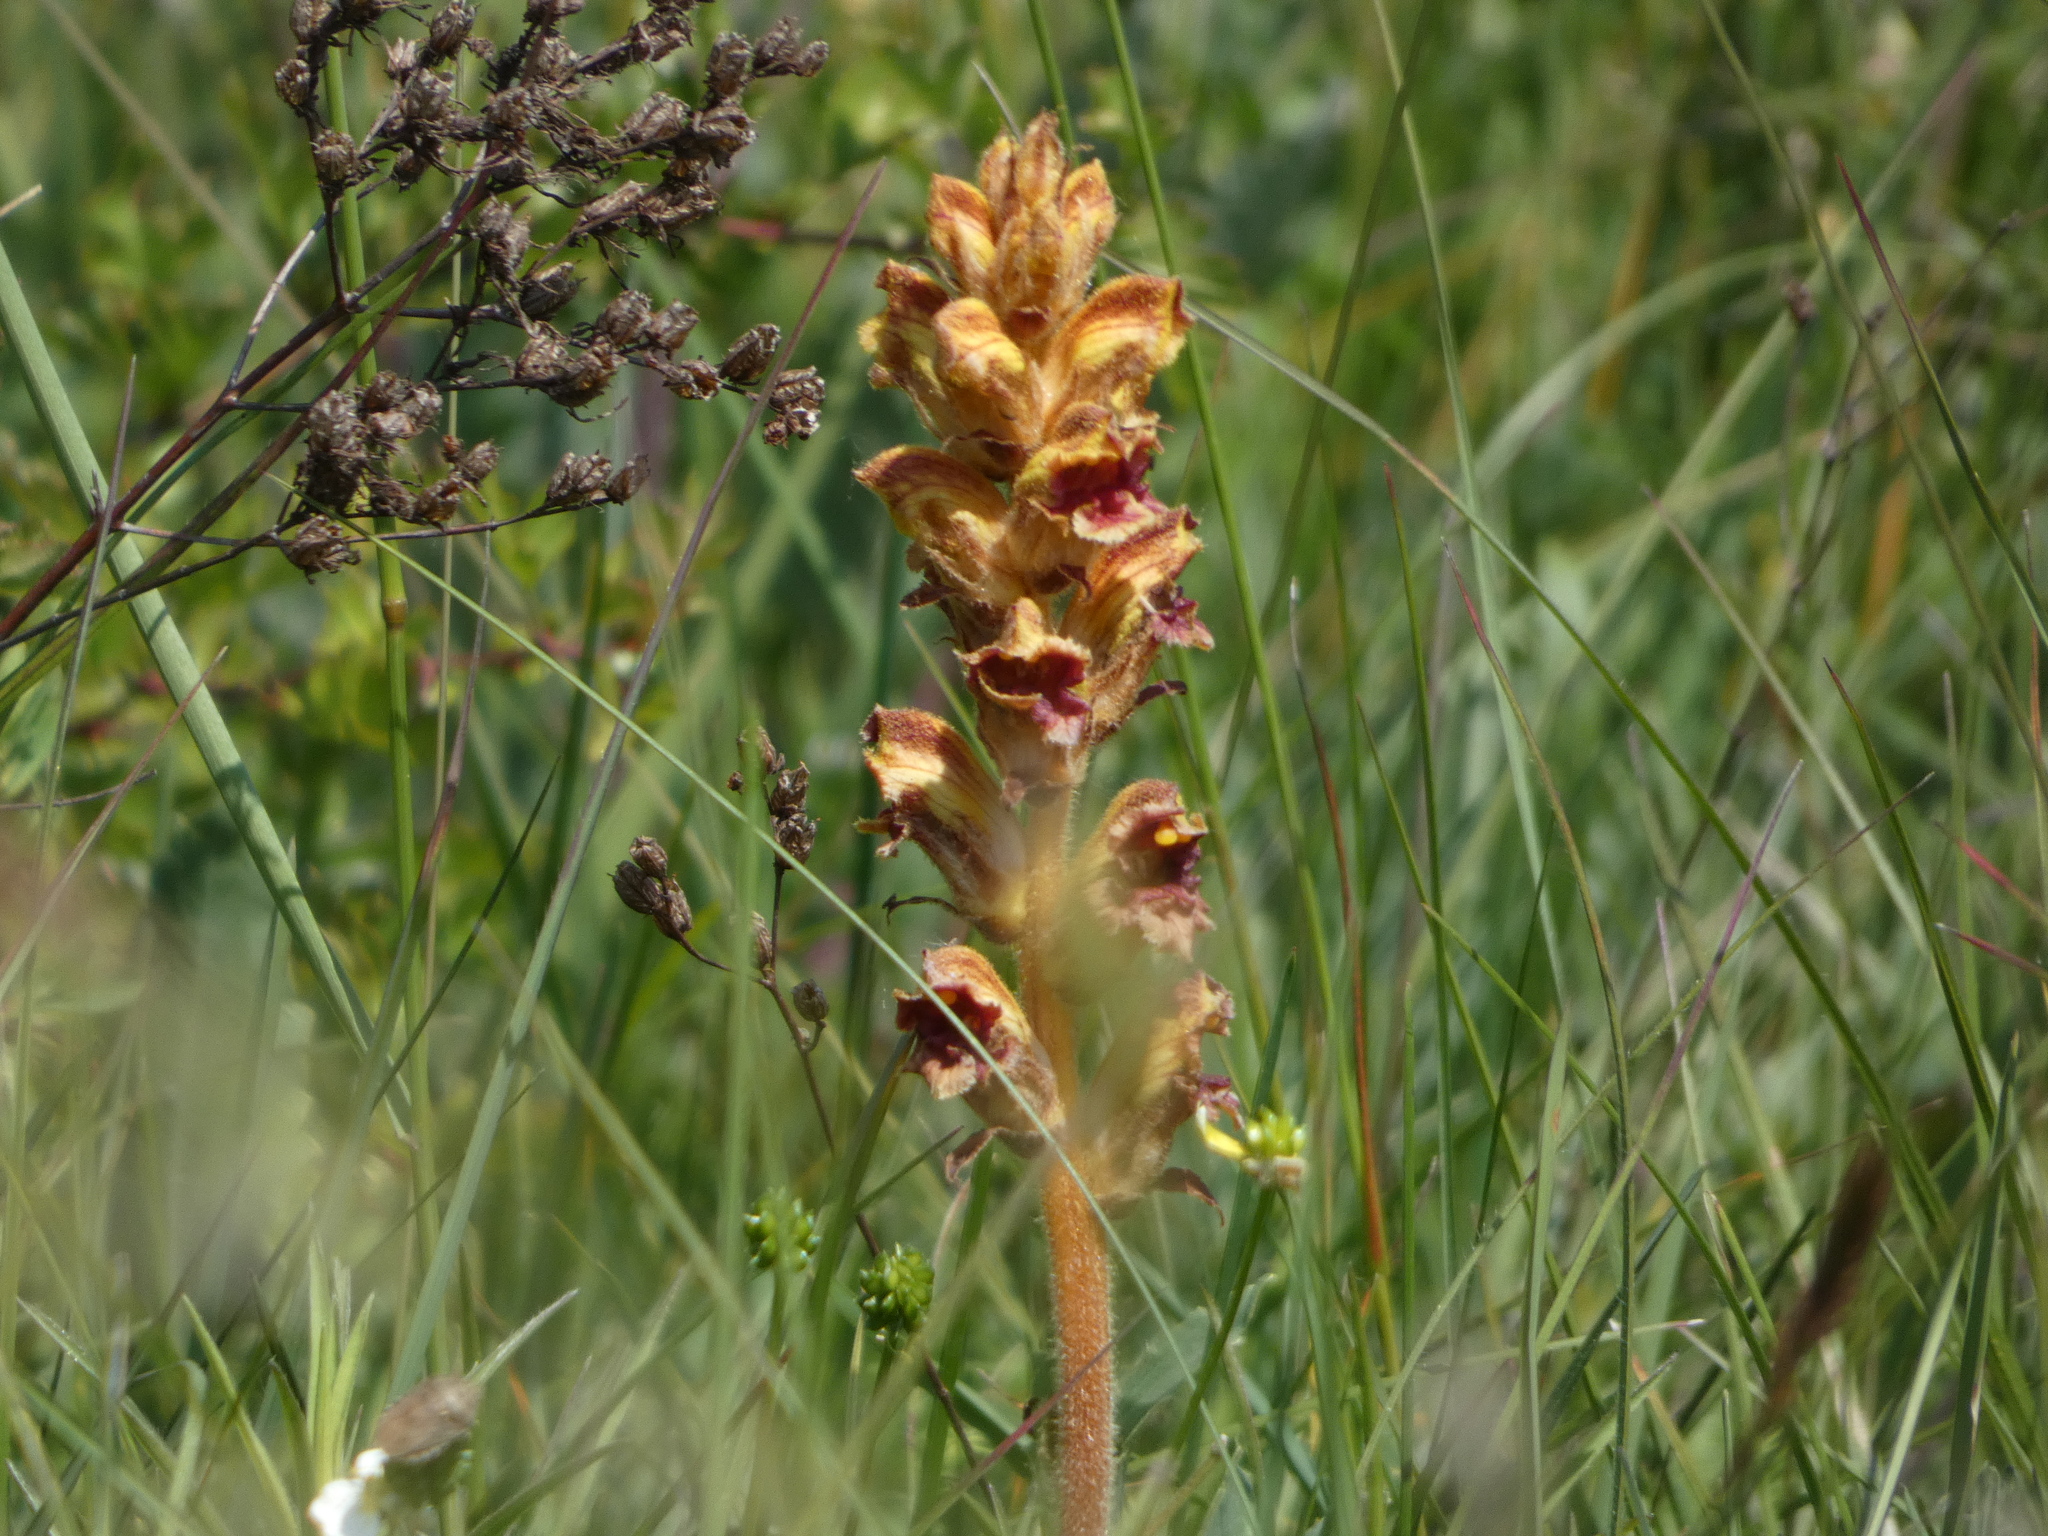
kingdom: Plantae
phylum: Tracheophyta
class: Magnoliopsida
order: Lamiales
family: Orobanchaceae
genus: Orobanche
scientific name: Orobanche gracilis
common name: Slender broomrape
